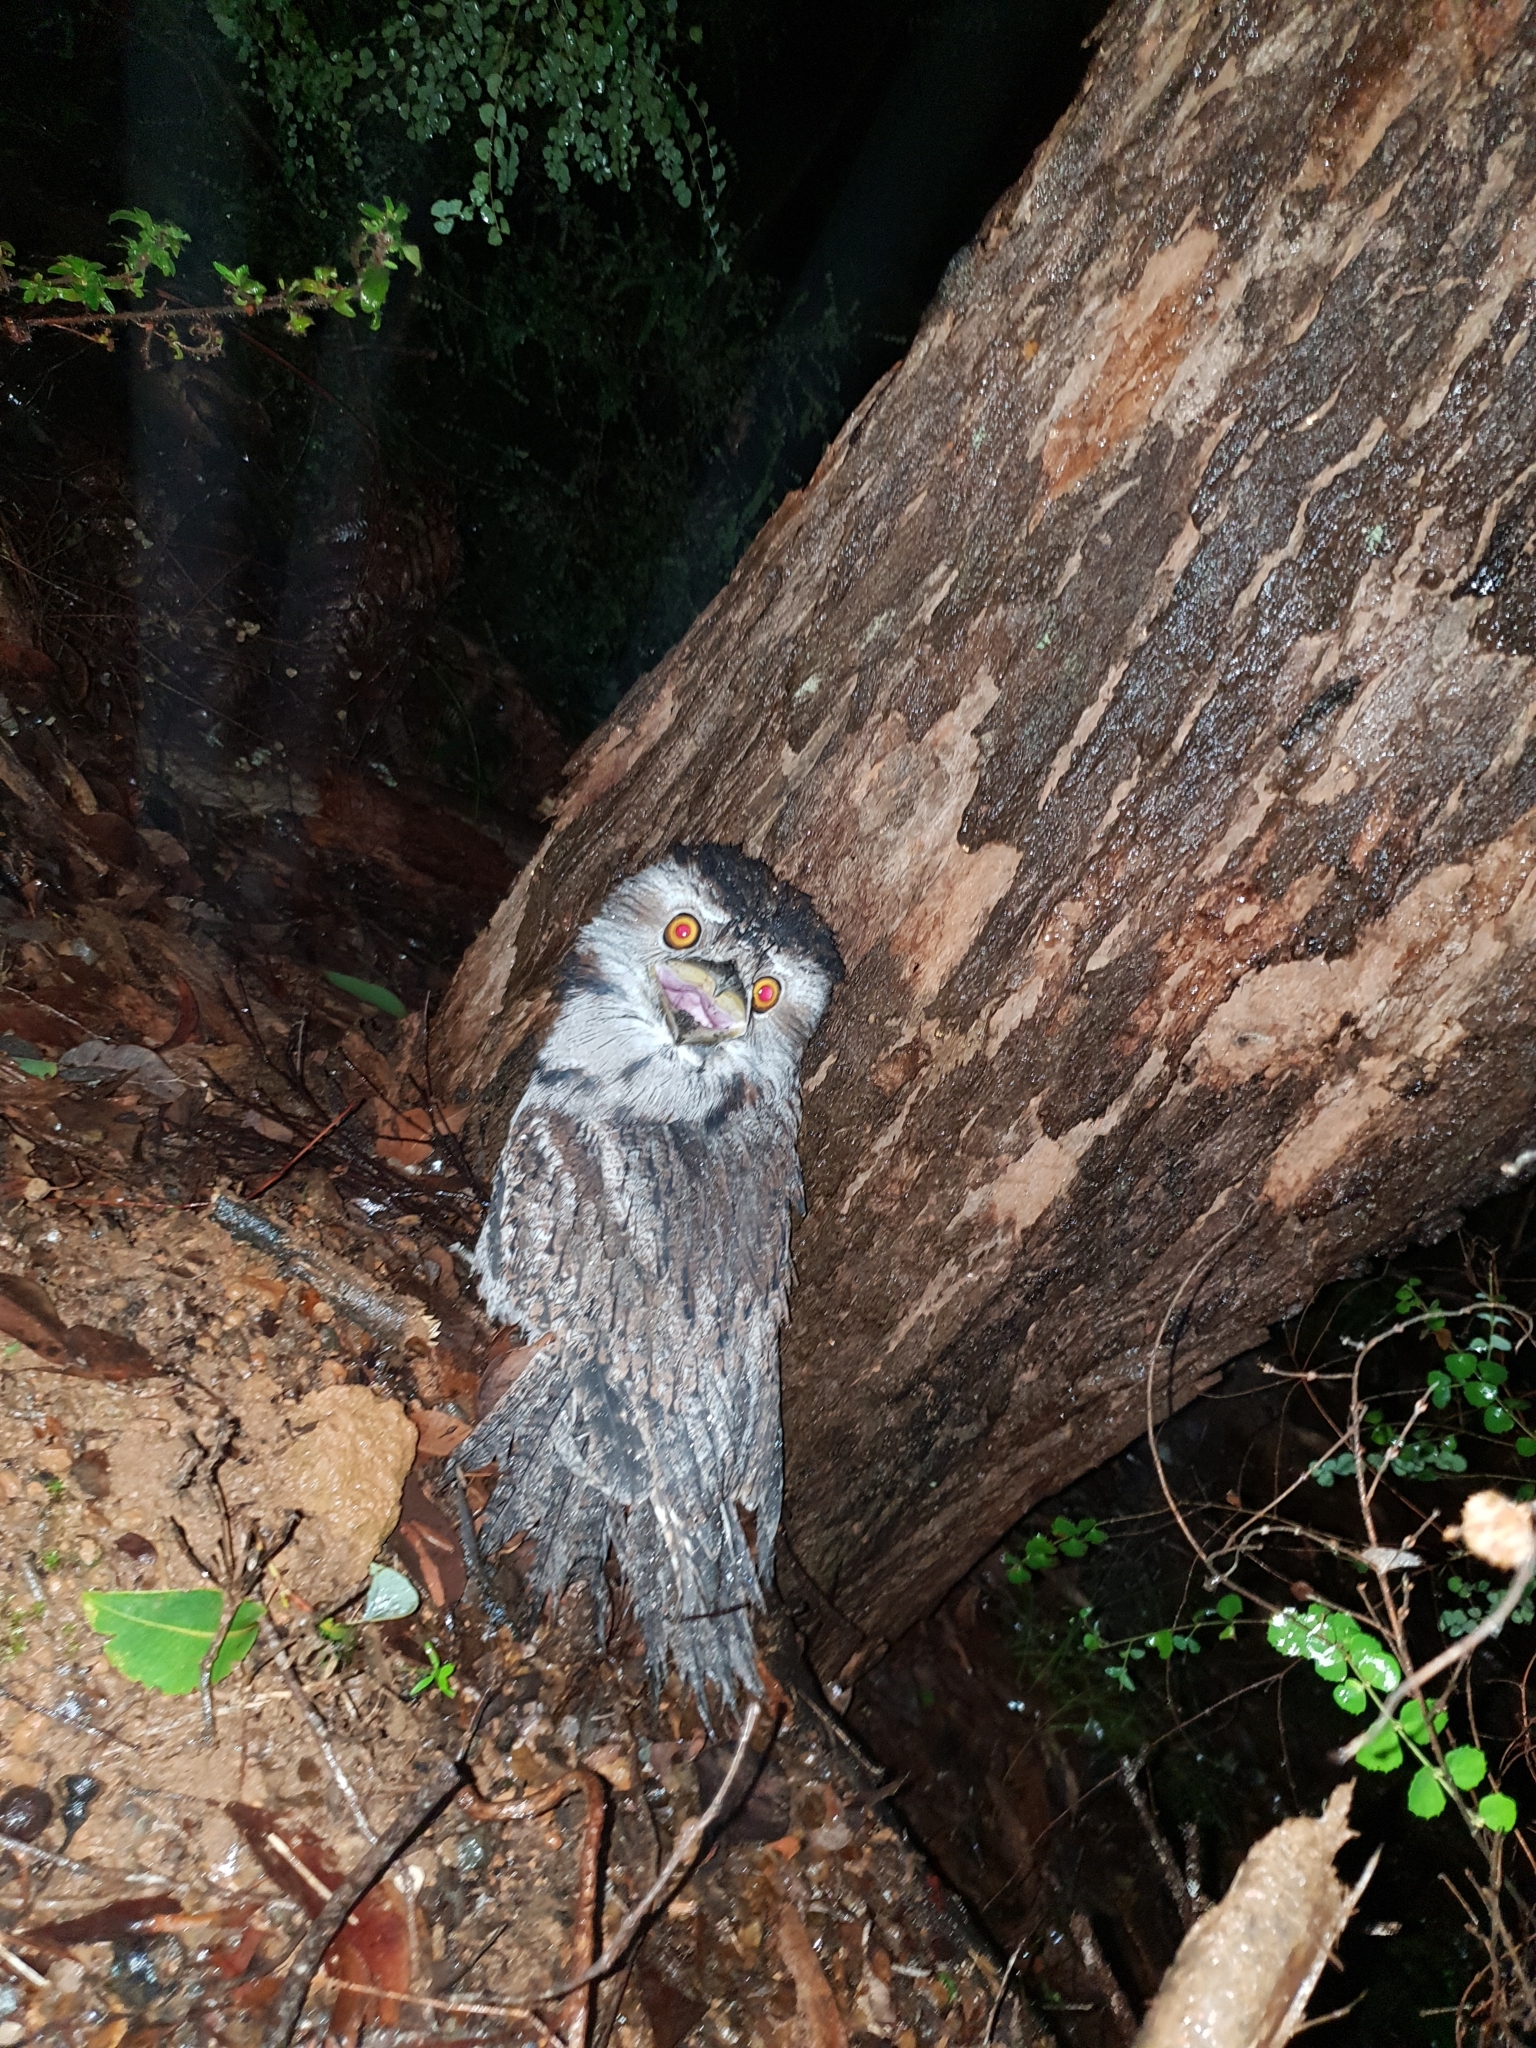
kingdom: Animalia
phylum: Chordata
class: Aves
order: Caprimulgiformes
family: Podargidae
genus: Podargus
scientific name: Podargus strigoides
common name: Tawny frogmouth
